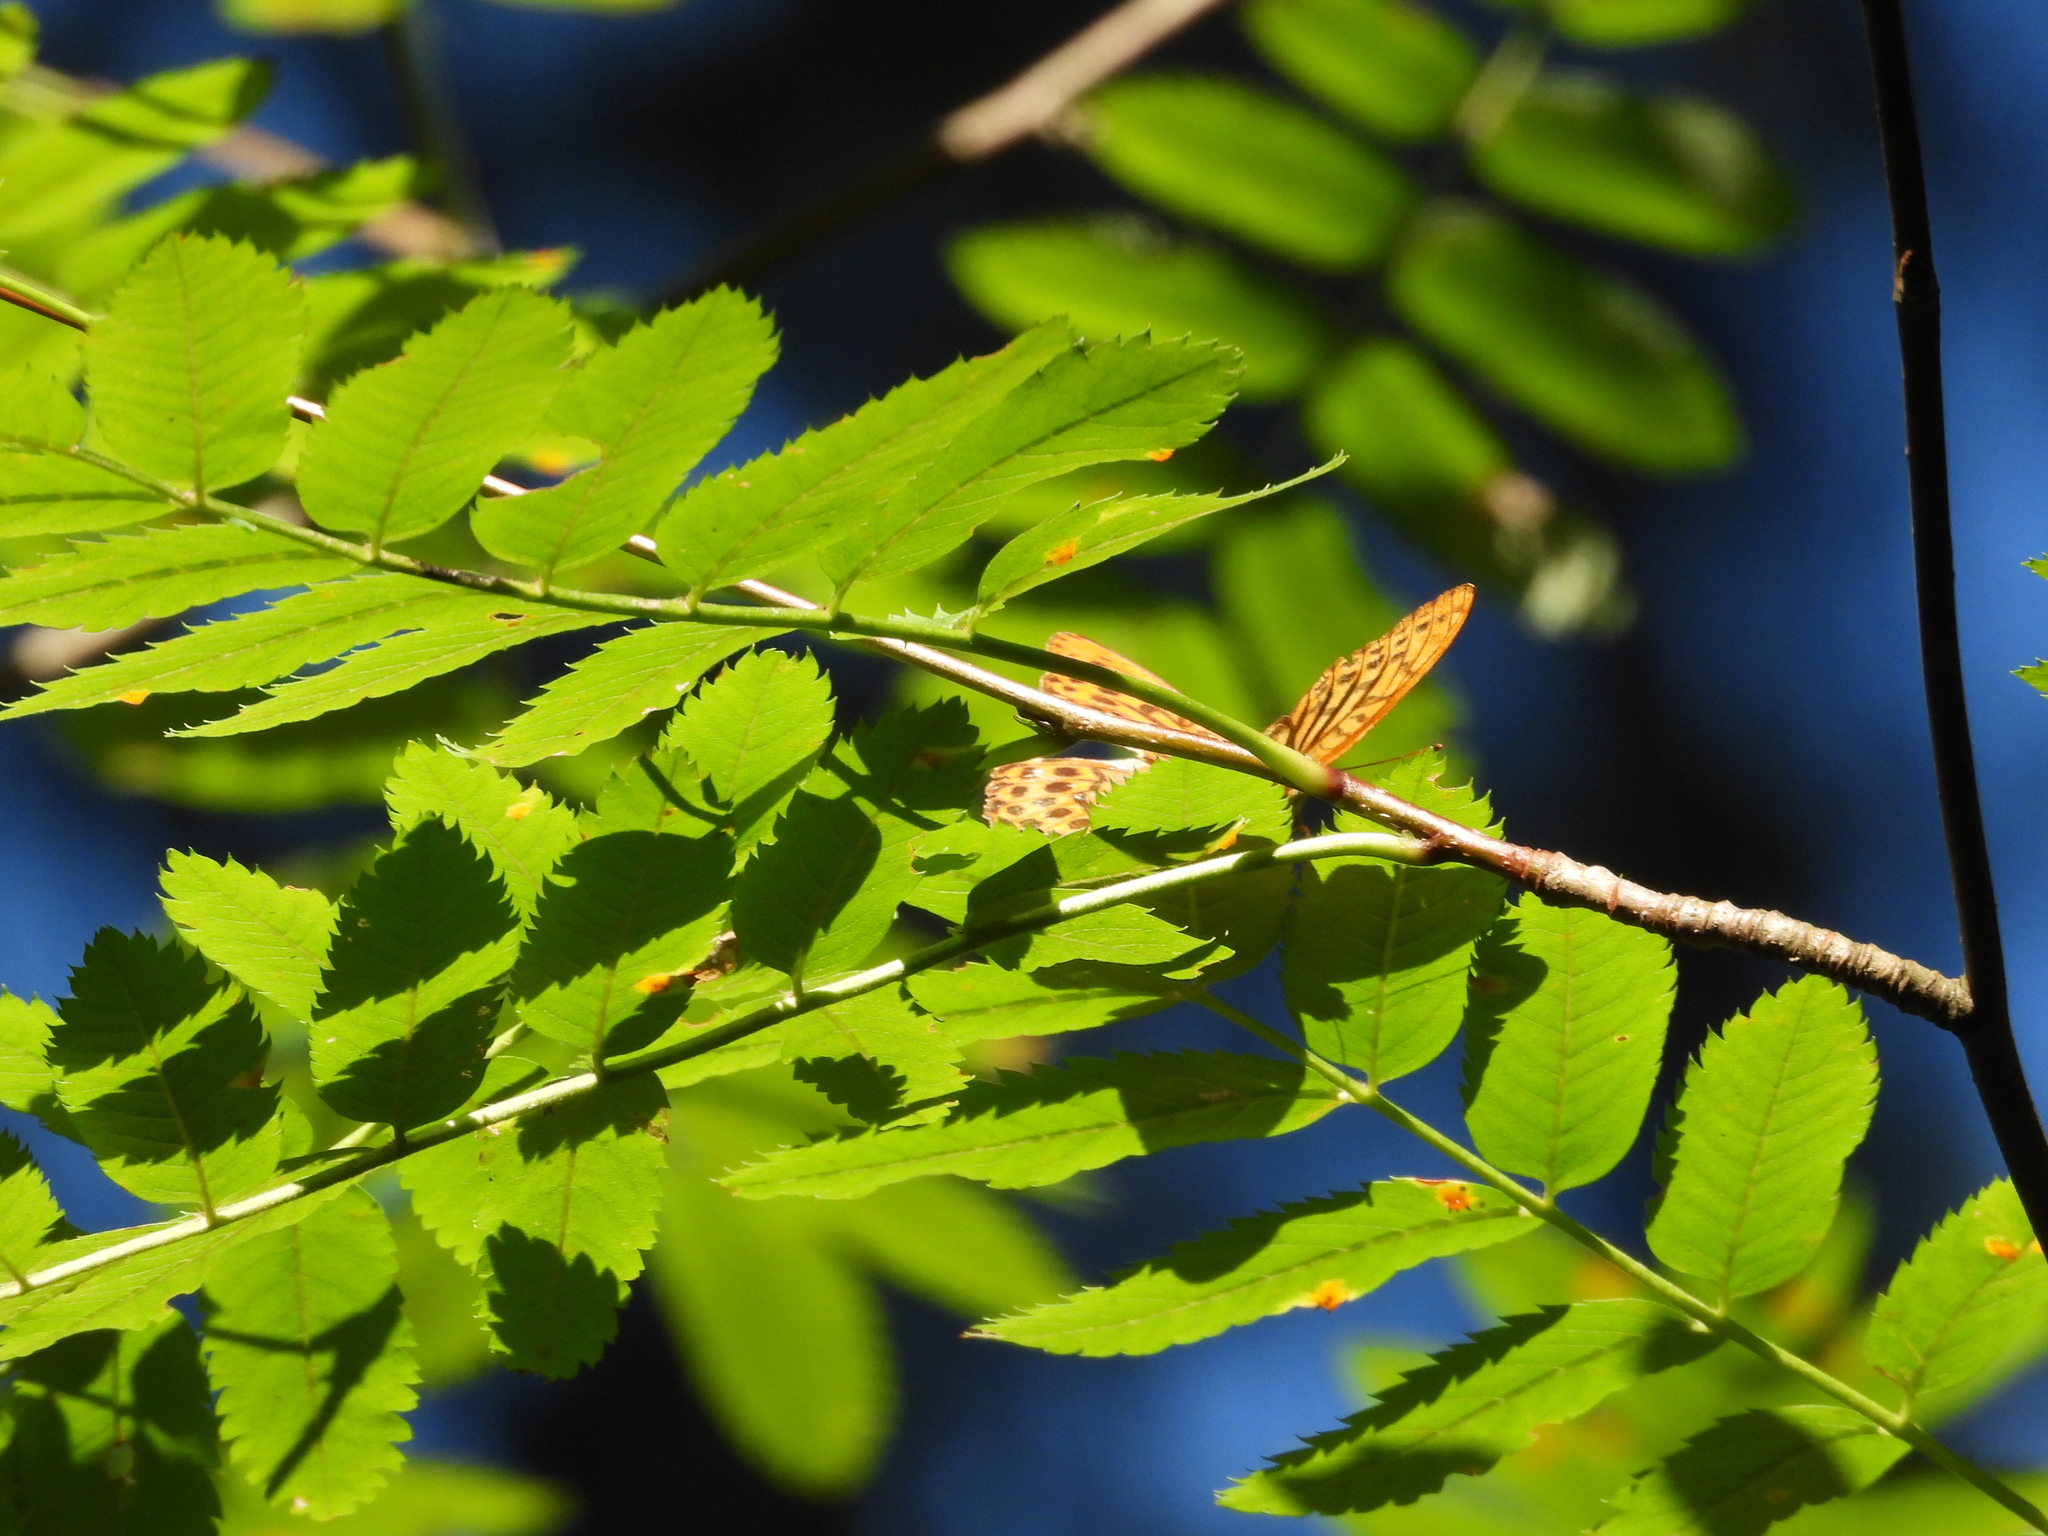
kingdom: Animalia
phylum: Arthropoda
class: Insecta
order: Lepidoptera
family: Nymphalidae
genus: Argynnis
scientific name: Argynnis paphia
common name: Silver-washed fritillary
